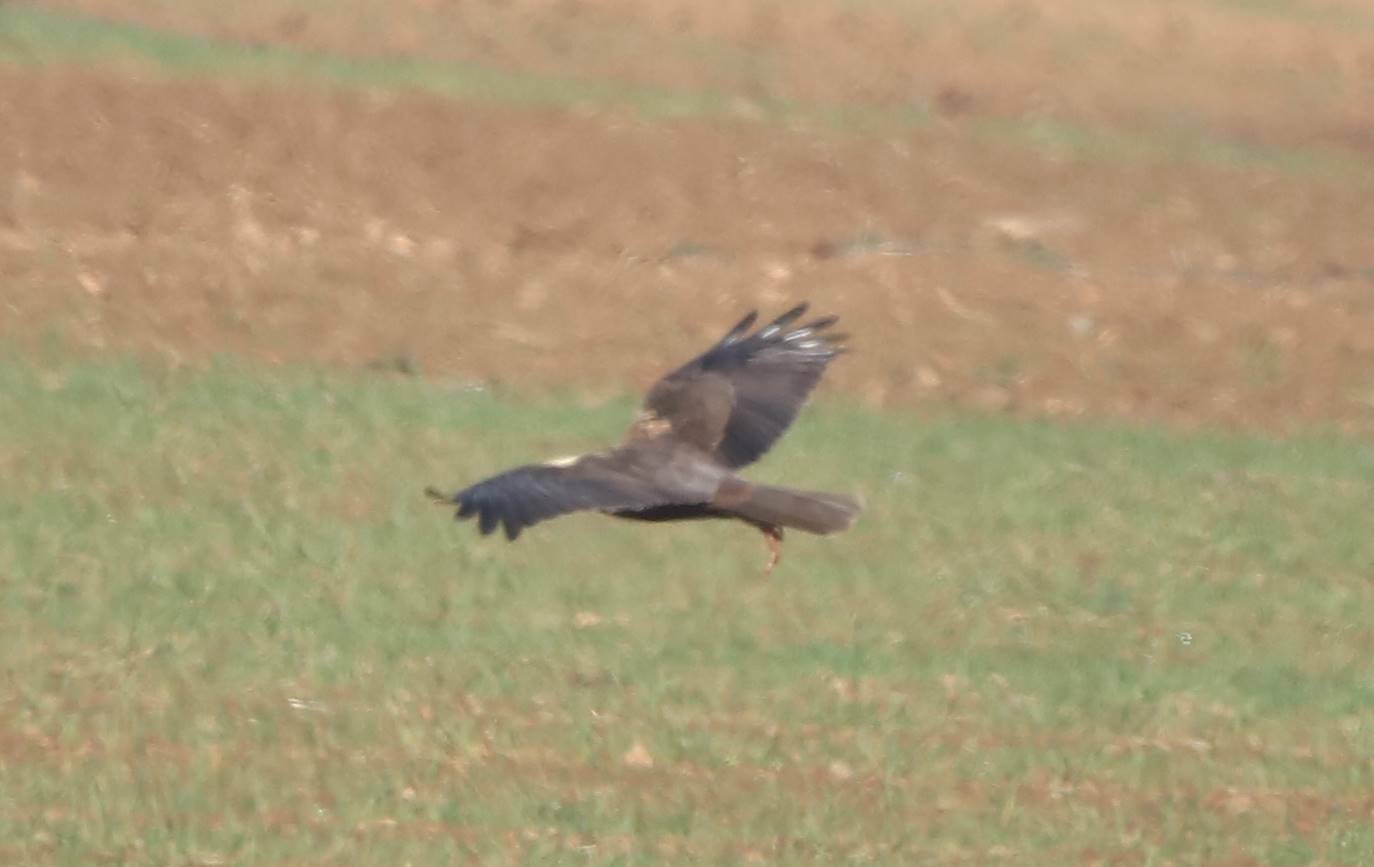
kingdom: Animalia
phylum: Chordata
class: Aves
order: Accipitriformes
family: Accipitridae
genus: Circus
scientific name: Circus aeruginosus
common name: Western marsh harrier
